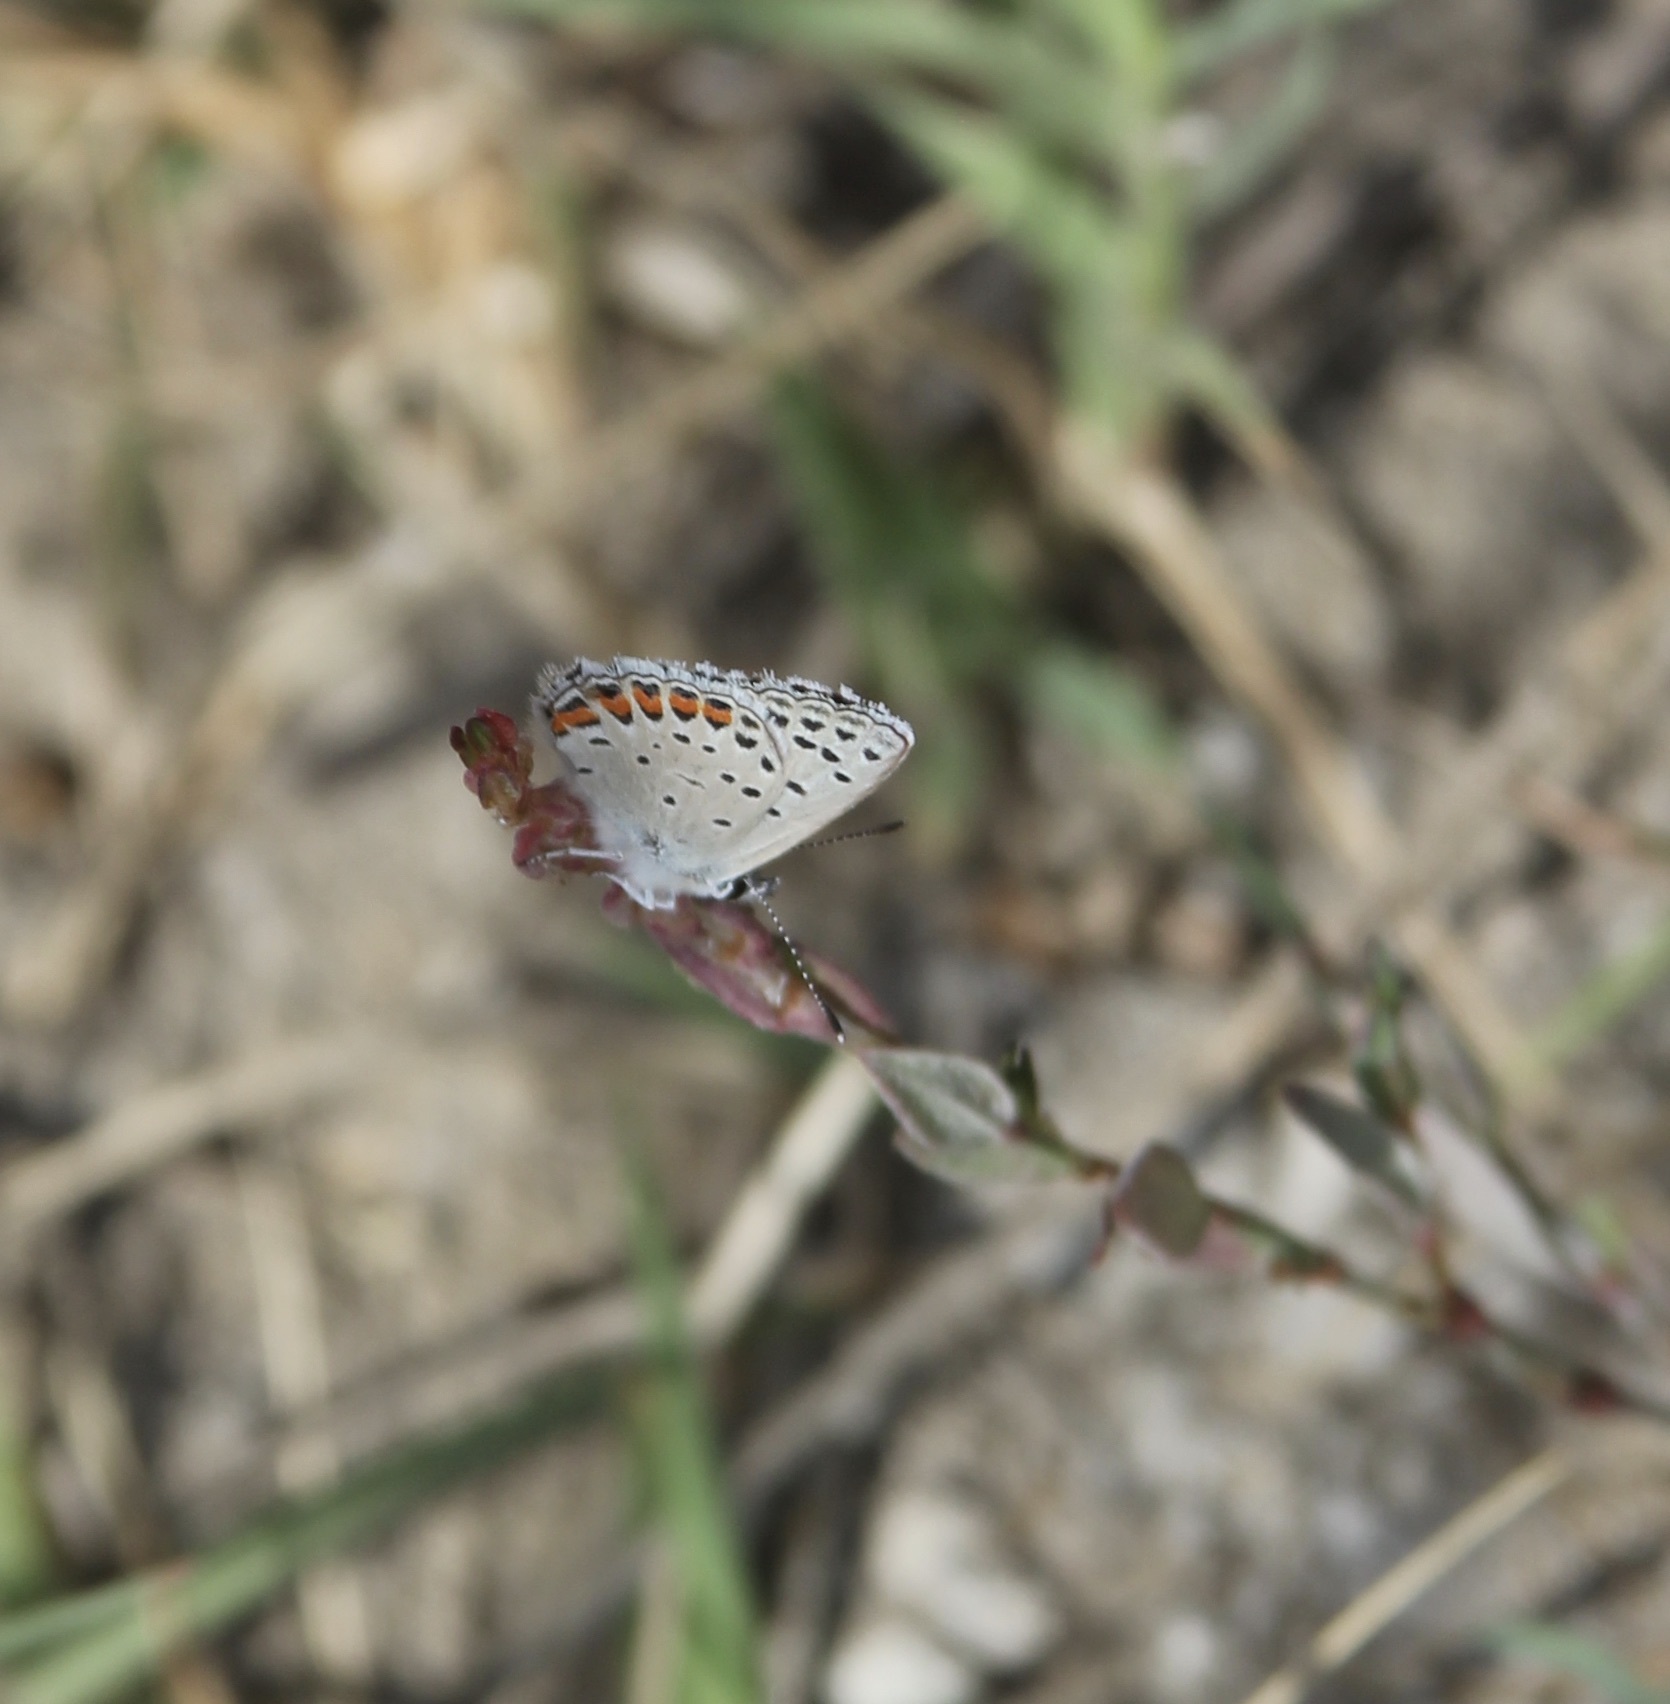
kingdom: Animalia
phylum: Arthropoda
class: Insecta
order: Lepidoptera
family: Lycaenidae
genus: Icaricia
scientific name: Icaricia acmon
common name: Acmon blue
